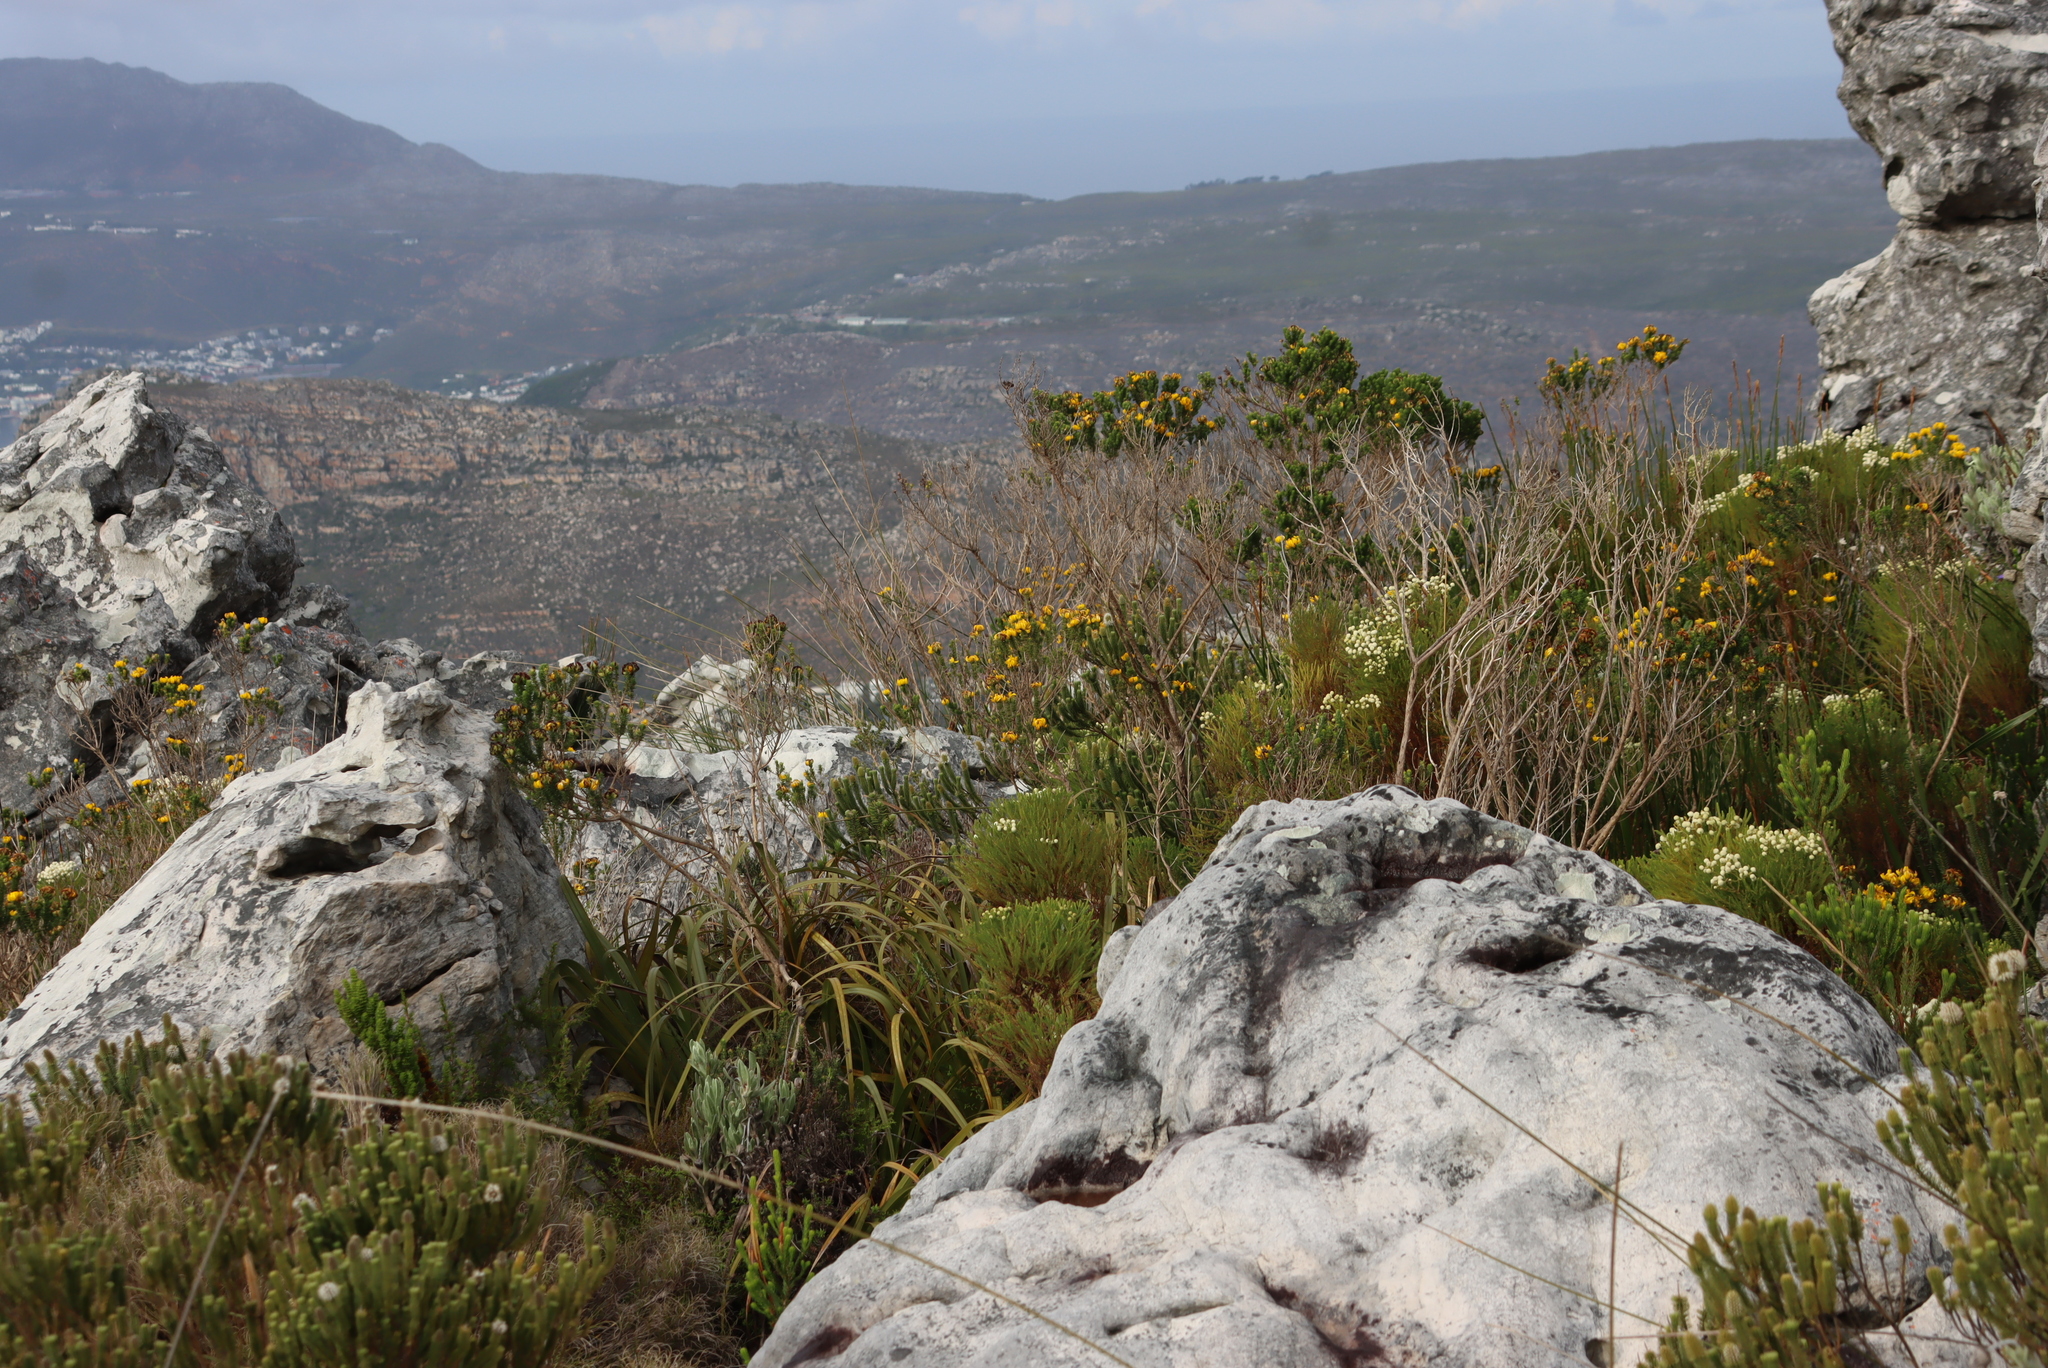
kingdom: Plantae
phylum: Tracheophyta
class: Magnoliopsida
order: Fabales
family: Fabaceae
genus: Aspalathus
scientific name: Aspalathus capitata
